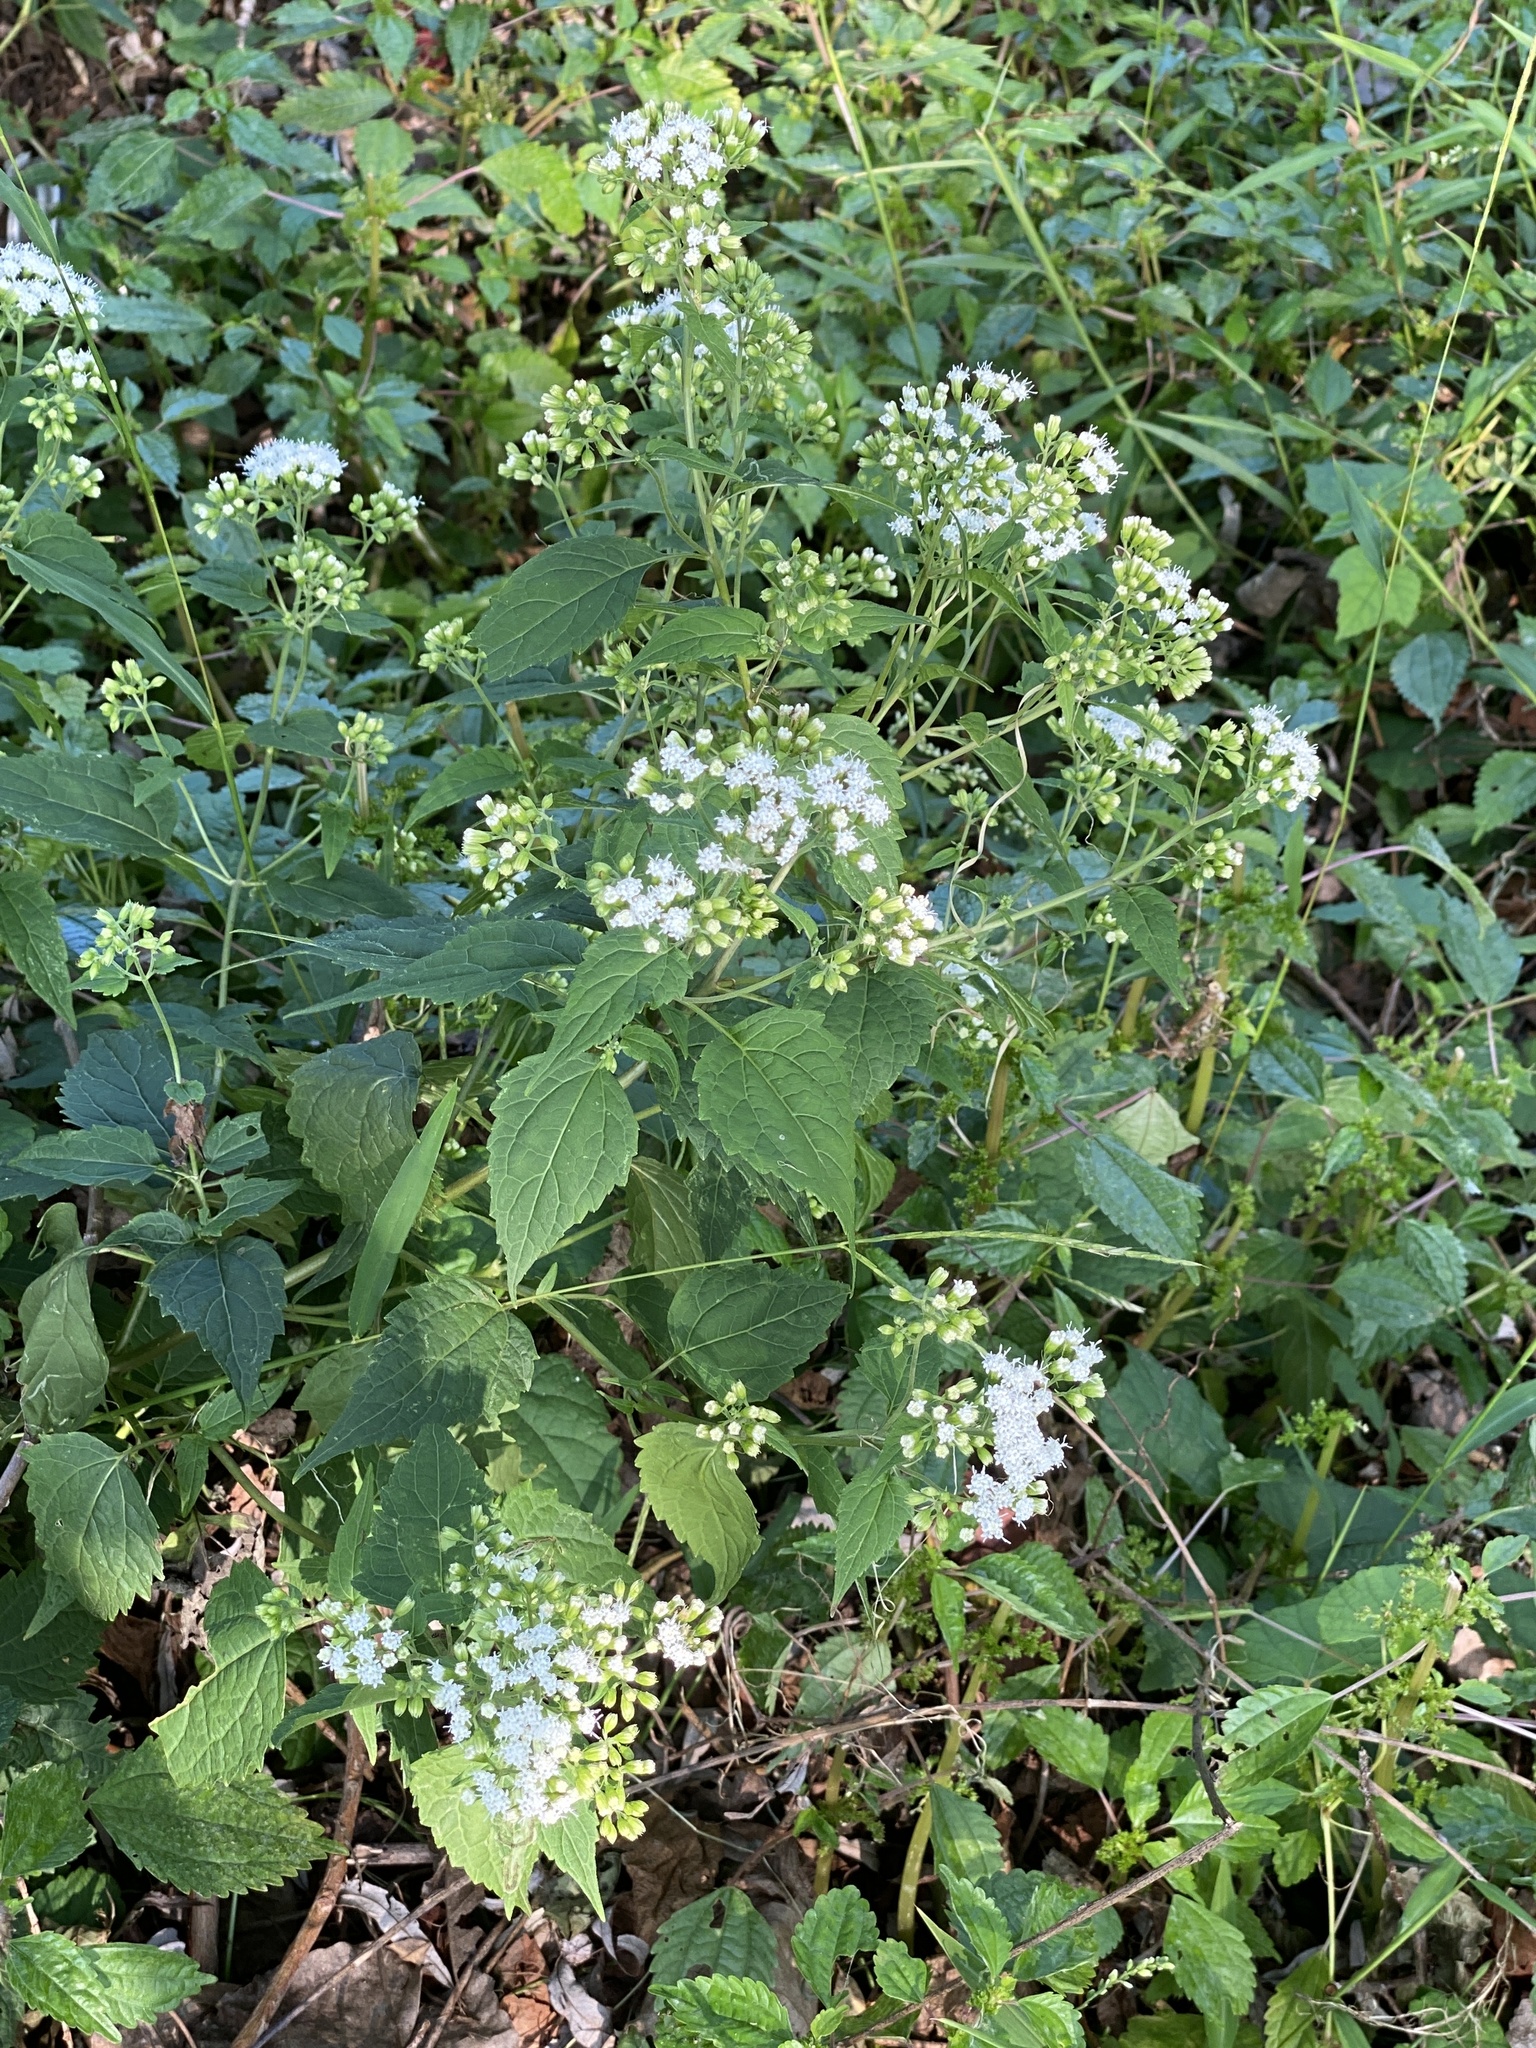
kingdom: Plantae
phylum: Tracheophyta
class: Magnoliopsida
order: Asterales
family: Asteraceae
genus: Ageratina
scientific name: Ageratina altissima
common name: White snakeroot
